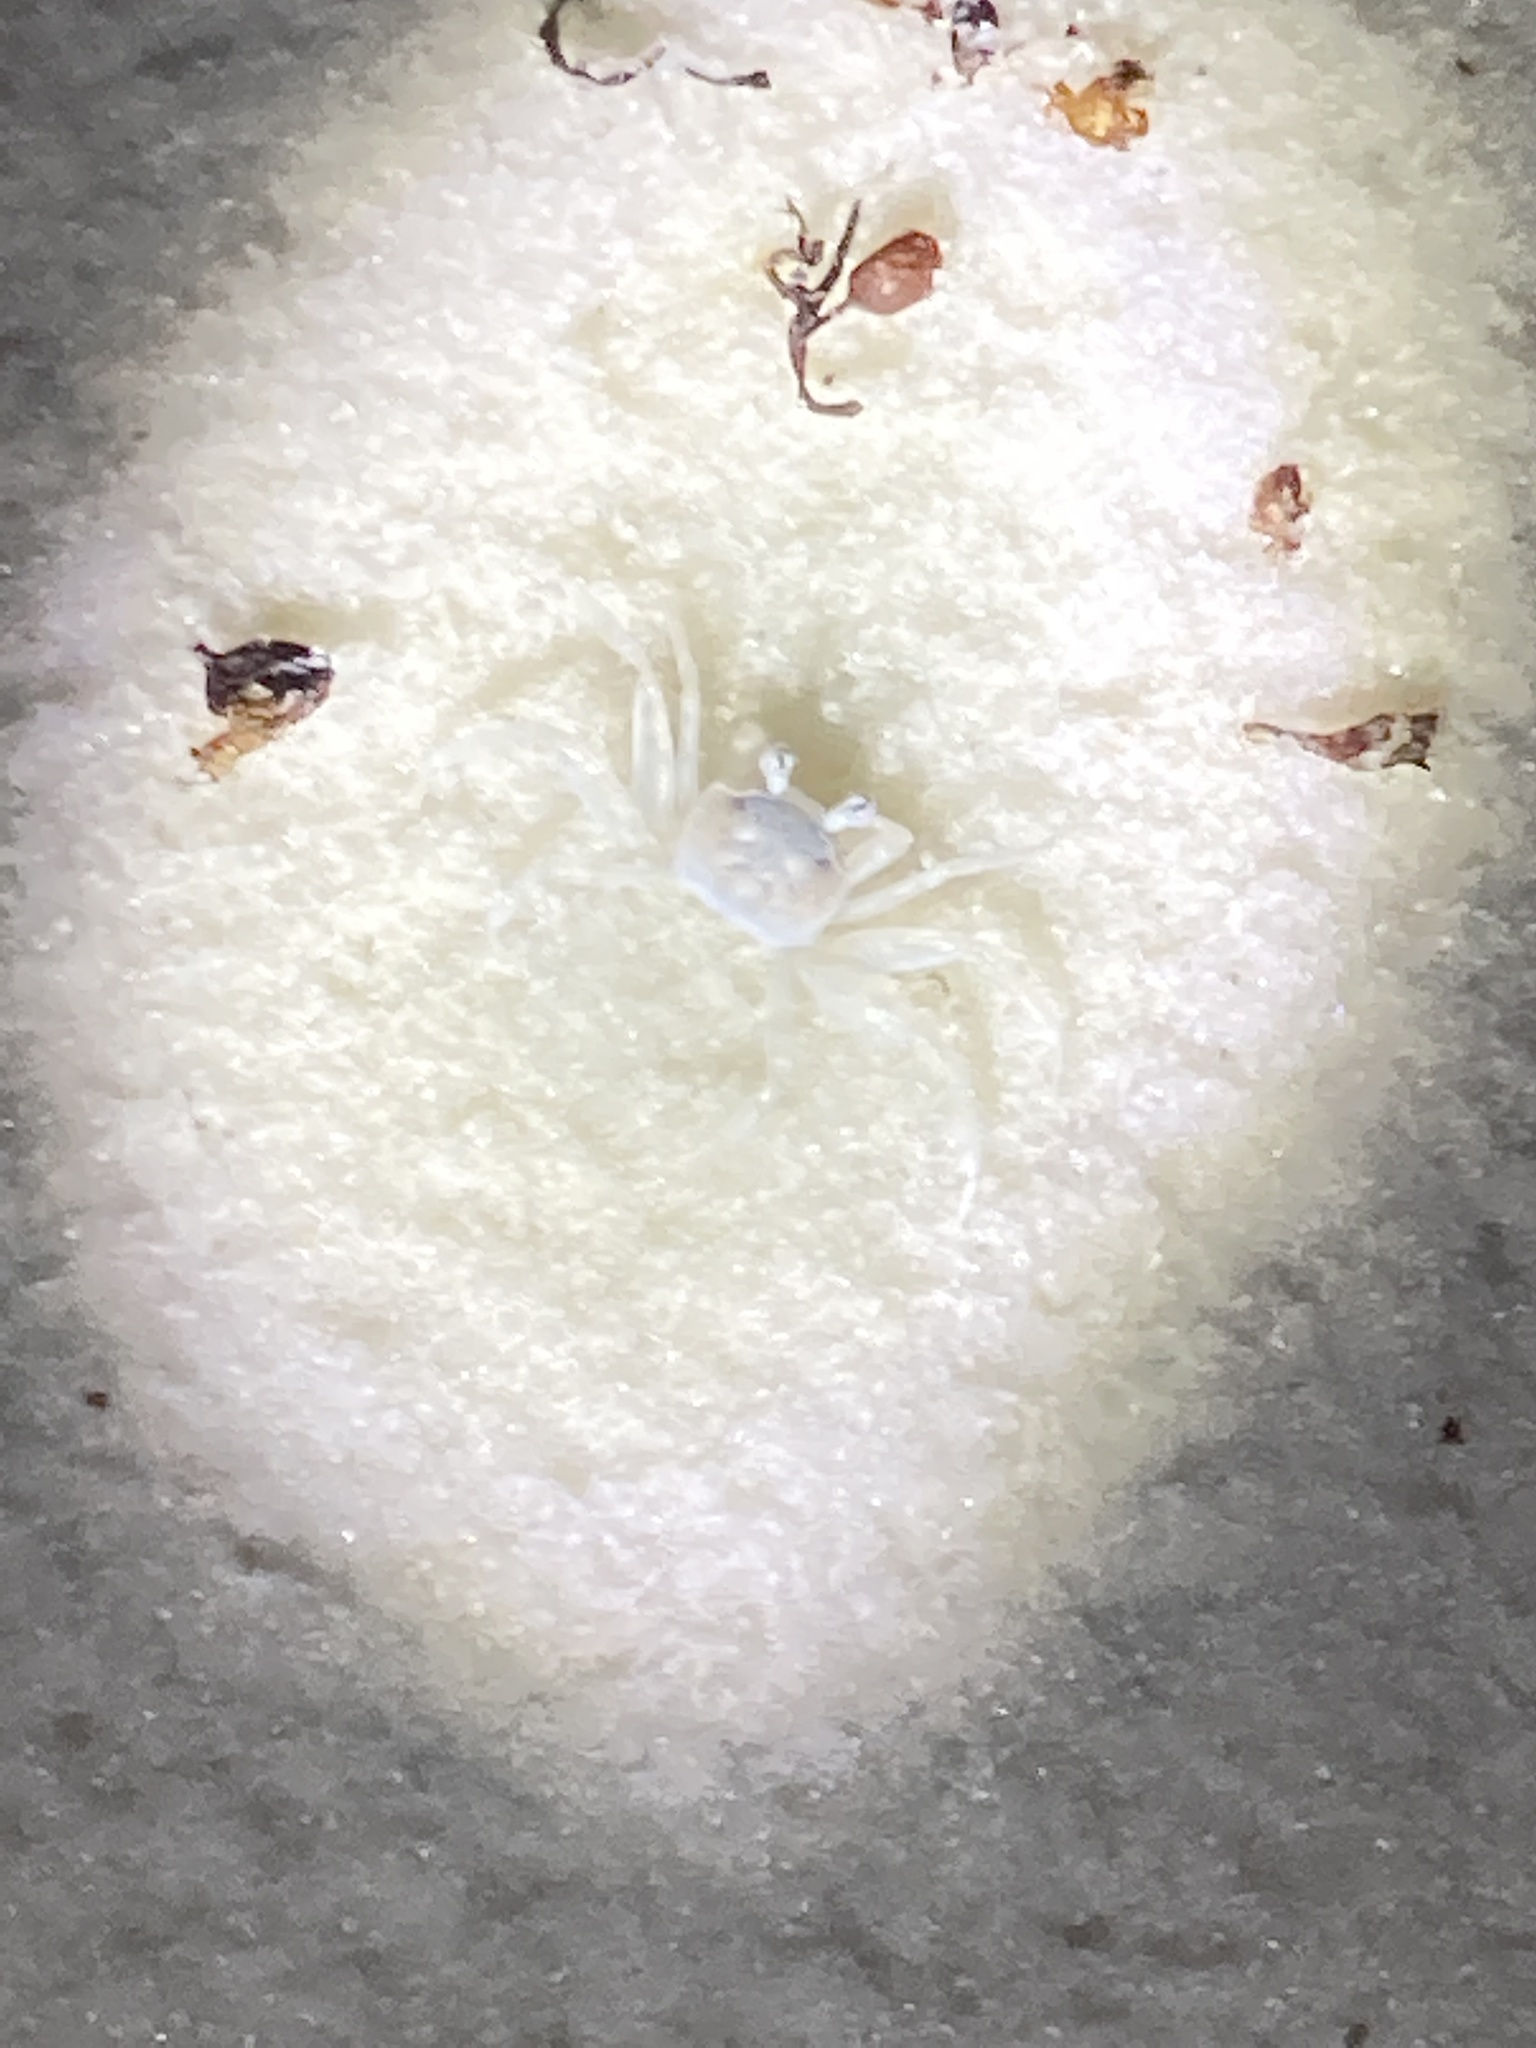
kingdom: Animalia
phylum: Arthropoda
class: Malacostraca
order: Decapoda
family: Ocypodidae
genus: Ocypode
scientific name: Ocypode quadrata
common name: Ghost crab
